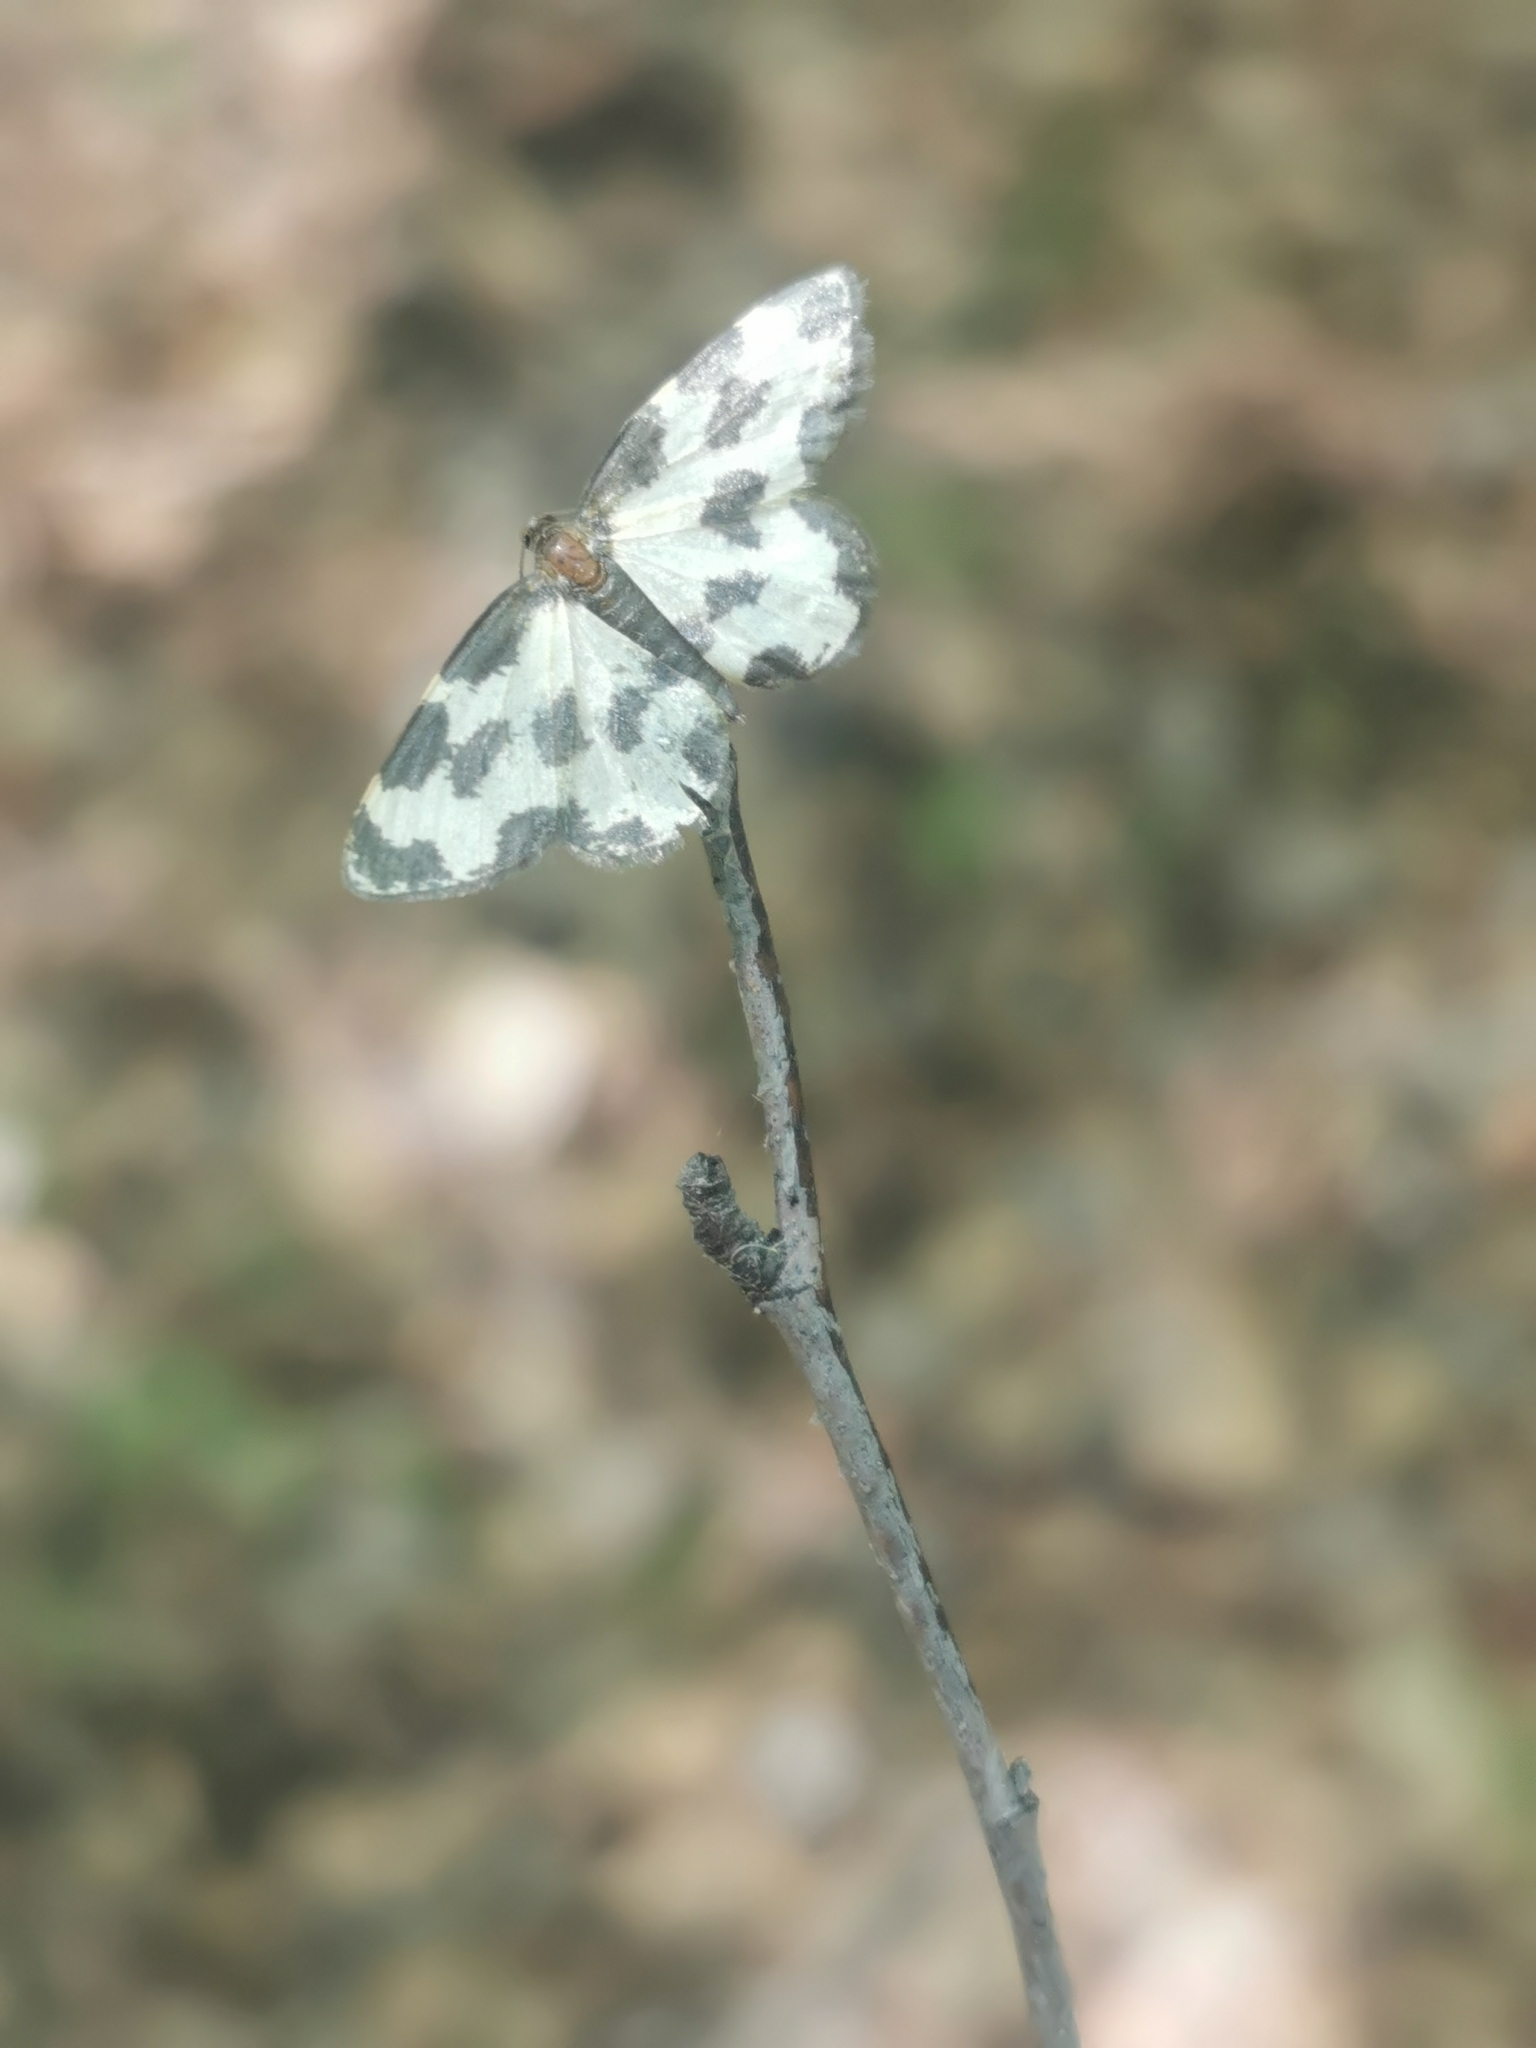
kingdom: Animalia
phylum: Arthropoda
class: Insecta
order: Lepidoptera
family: Geometridae
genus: Lomaspilis
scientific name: Lomaspilis opis
